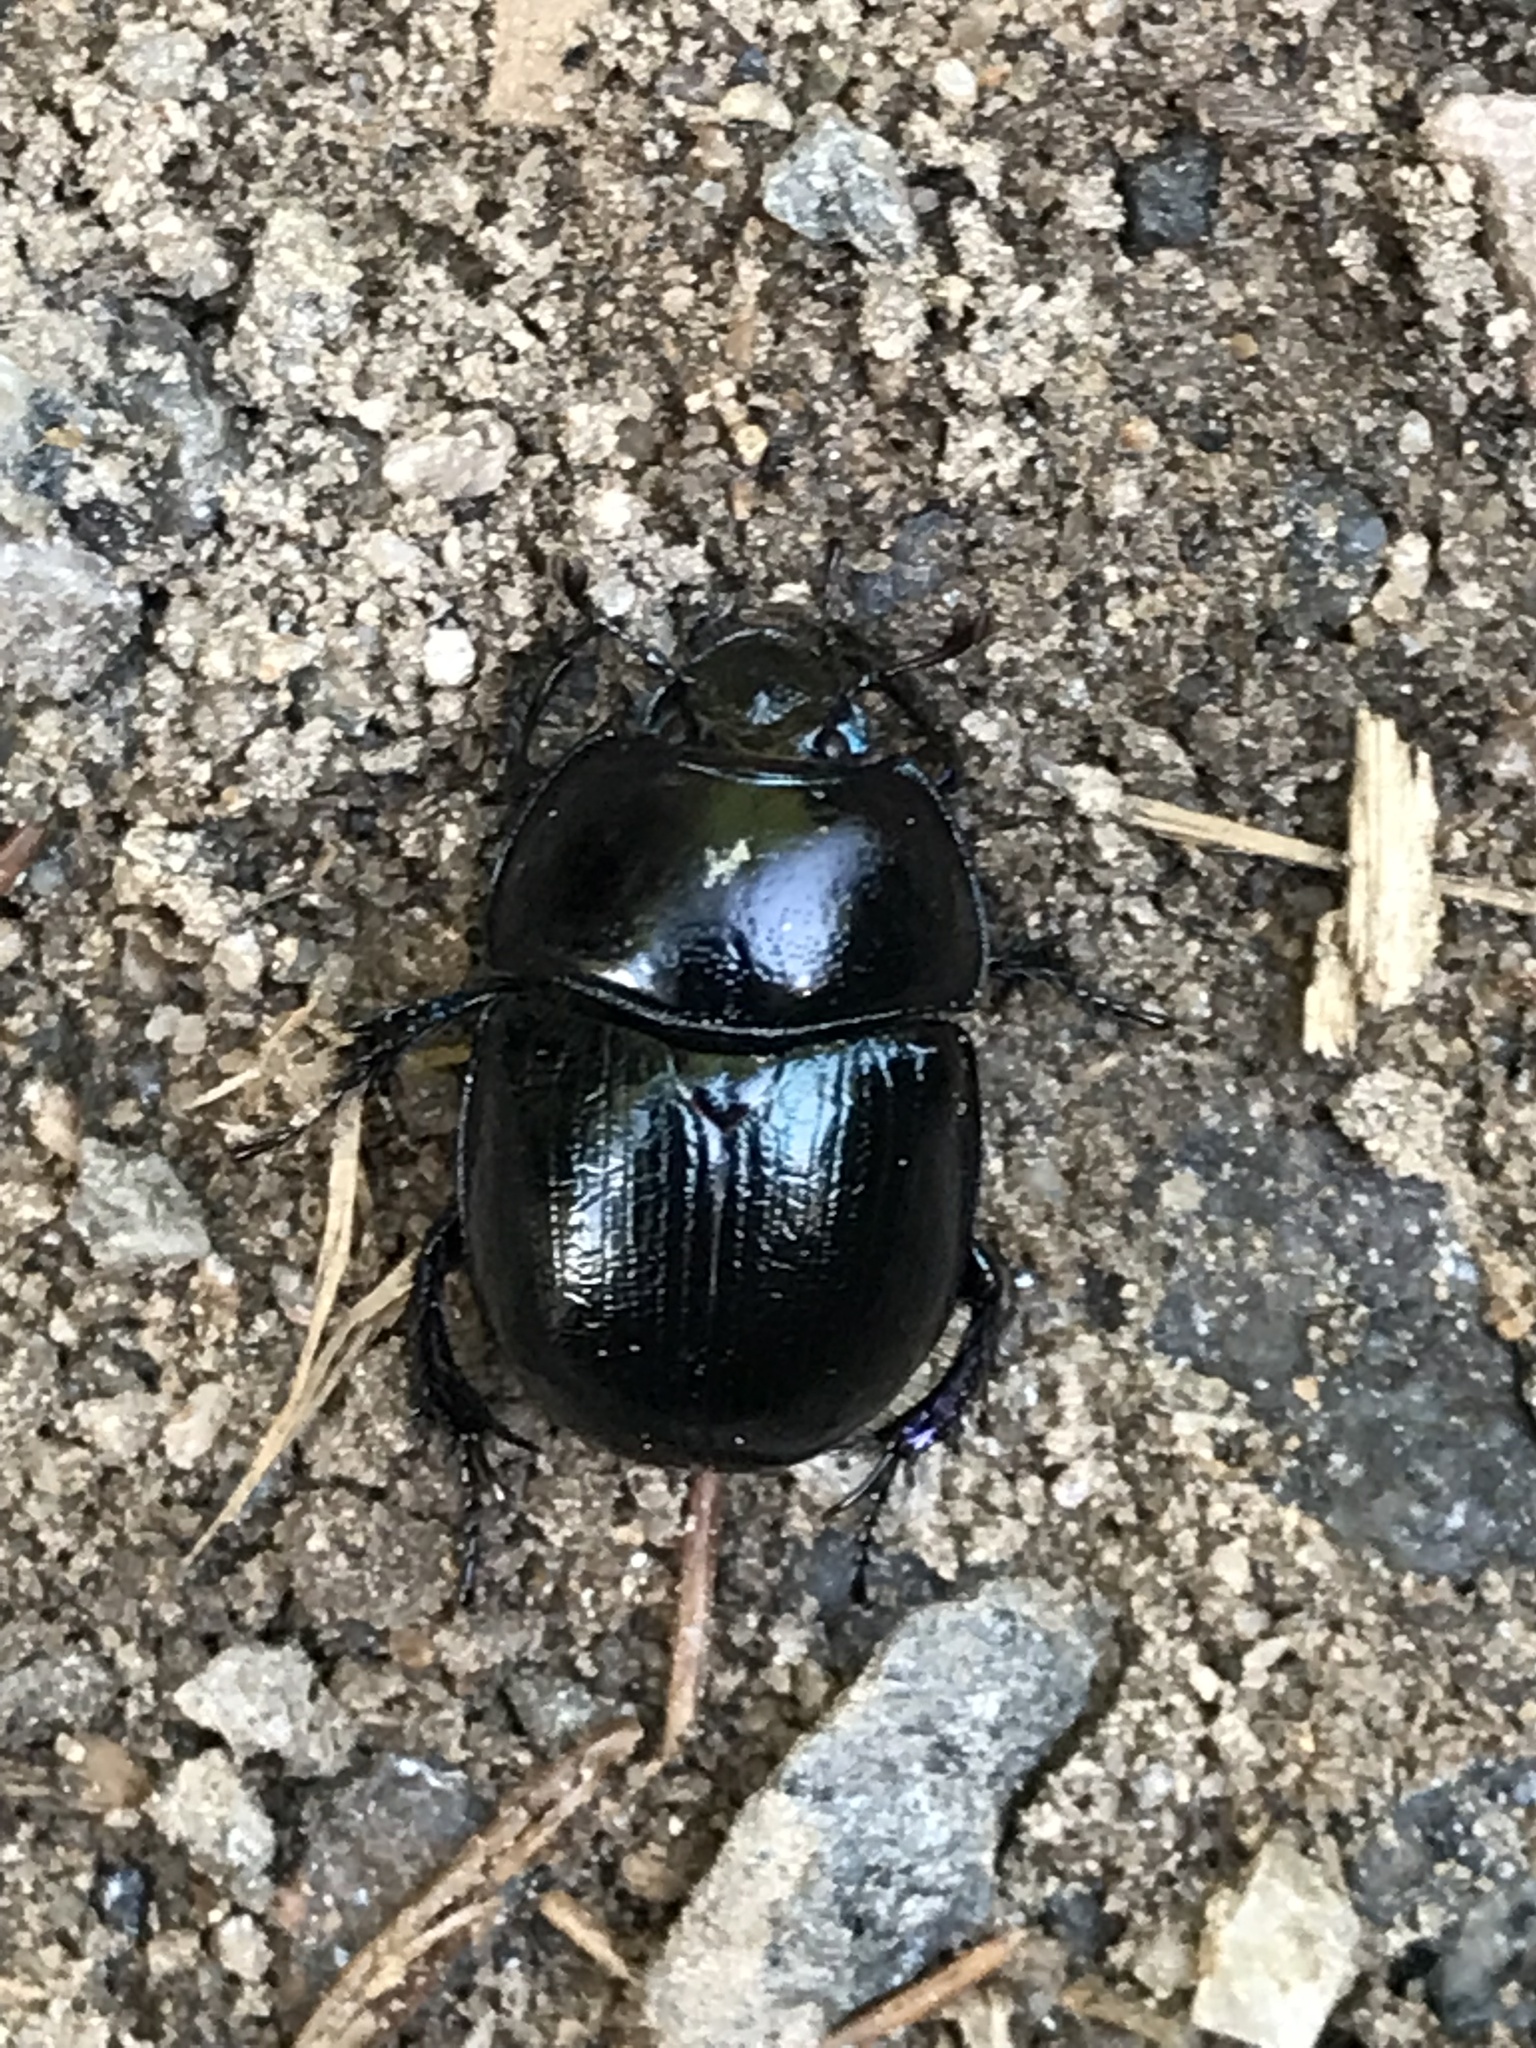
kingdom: Animalia
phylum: Arthropoda
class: Insecta
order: Coleoptera
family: Geotrupidae
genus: Anoplotrupes
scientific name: Anoplotrupes stercorosus
